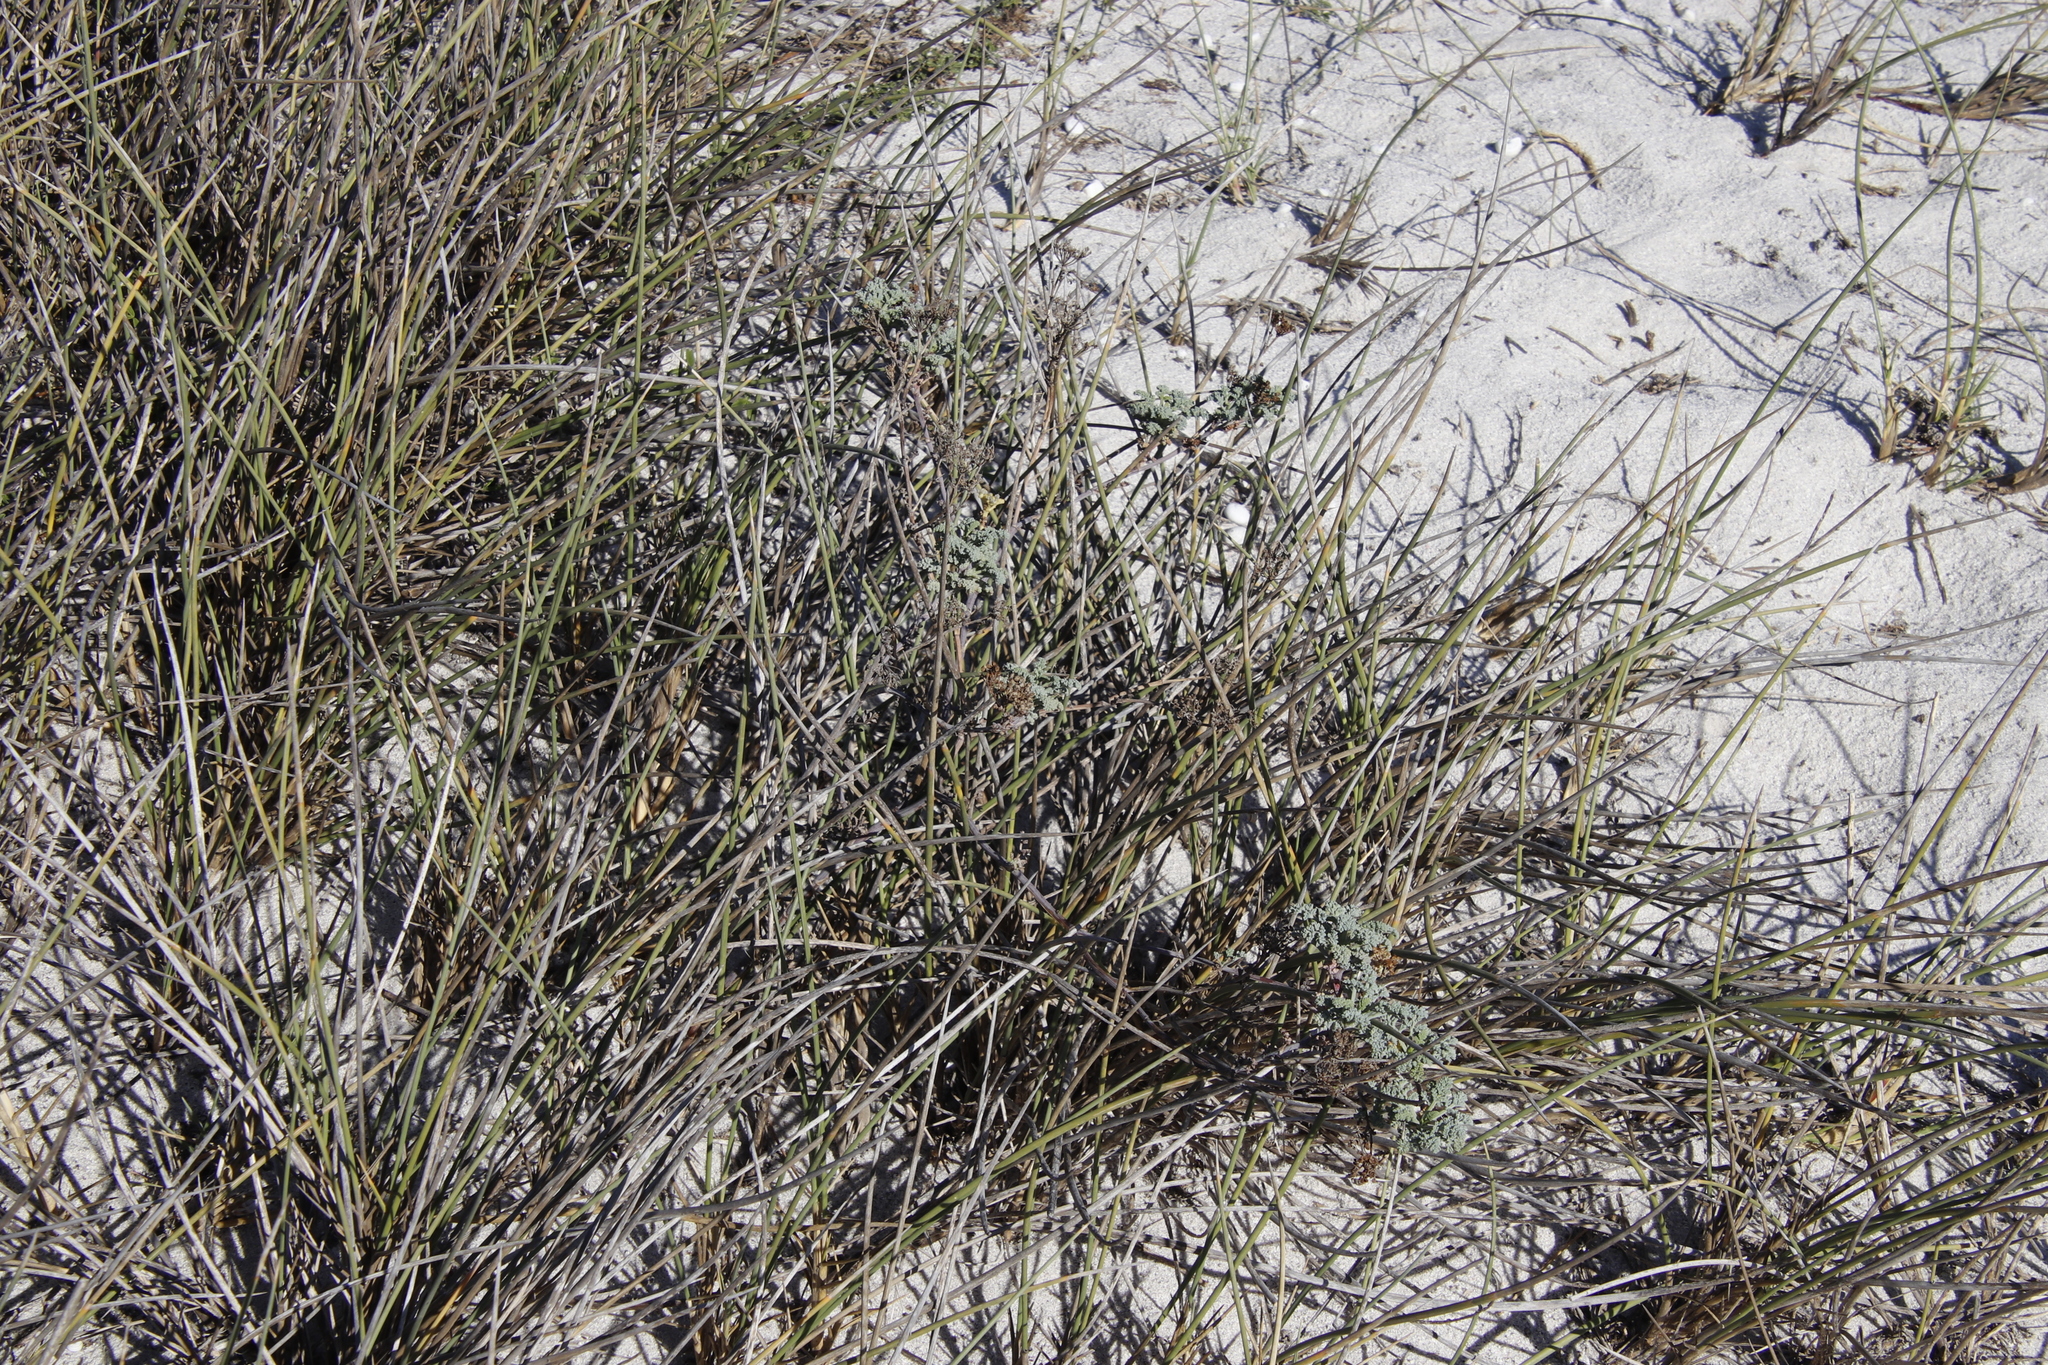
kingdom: Plantae
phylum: Tracheophyta
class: Magnoliopsida
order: Apiales
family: Apiaceae
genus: Dasispermum
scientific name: Dasispermum suffruticosum
